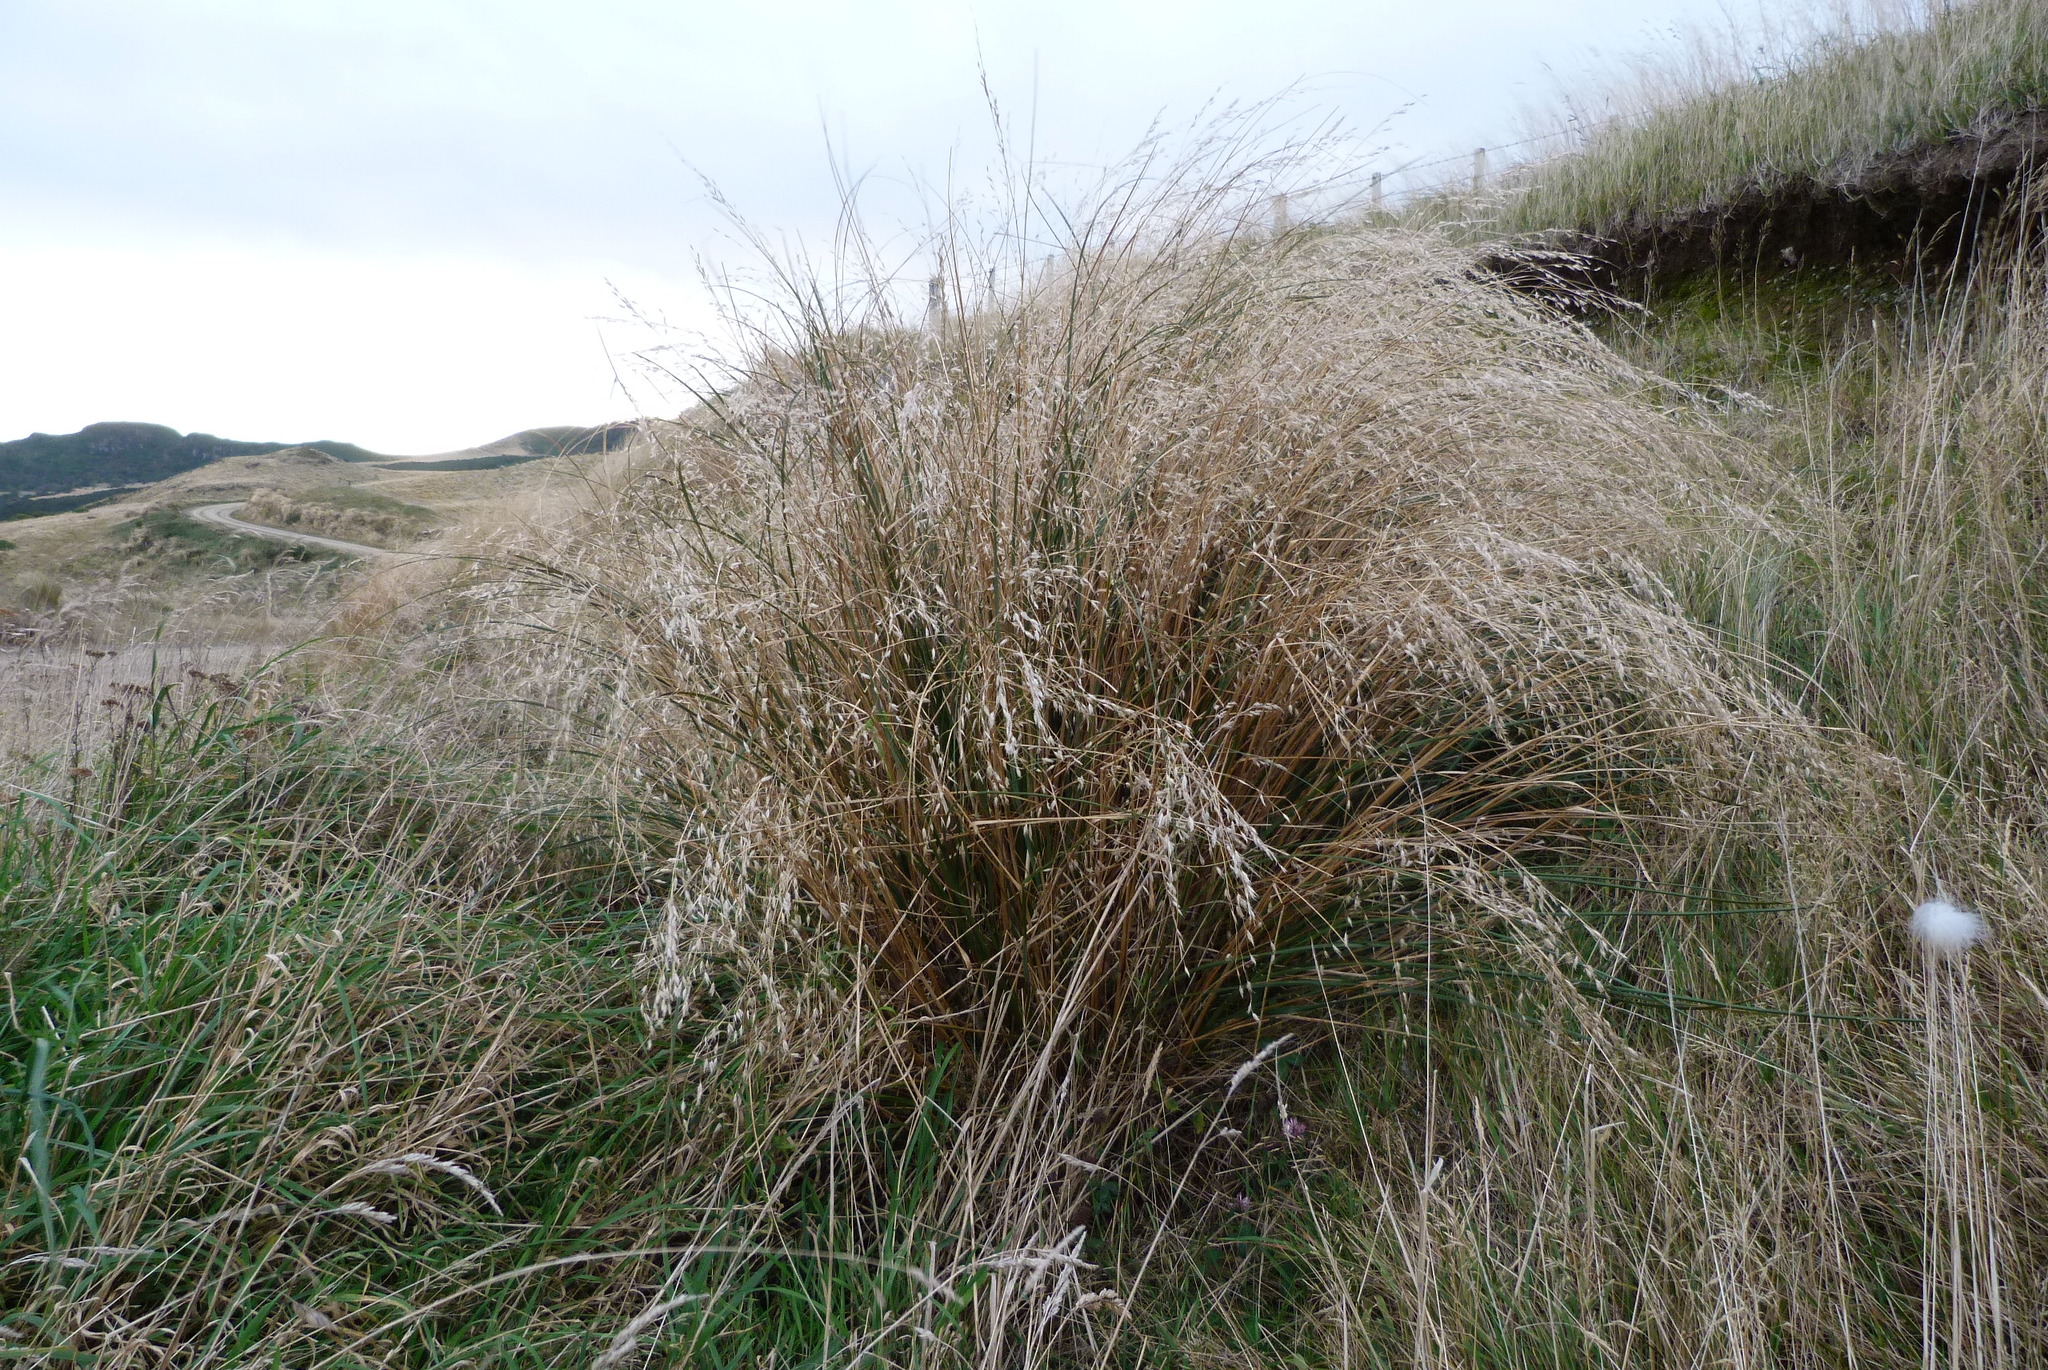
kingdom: Plantae
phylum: Tracheophyta
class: Liliopsida
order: Poales
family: Poaceae
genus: Chionochloa
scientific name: Chionochloa rigida
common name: Narrow leaved snow tussock
